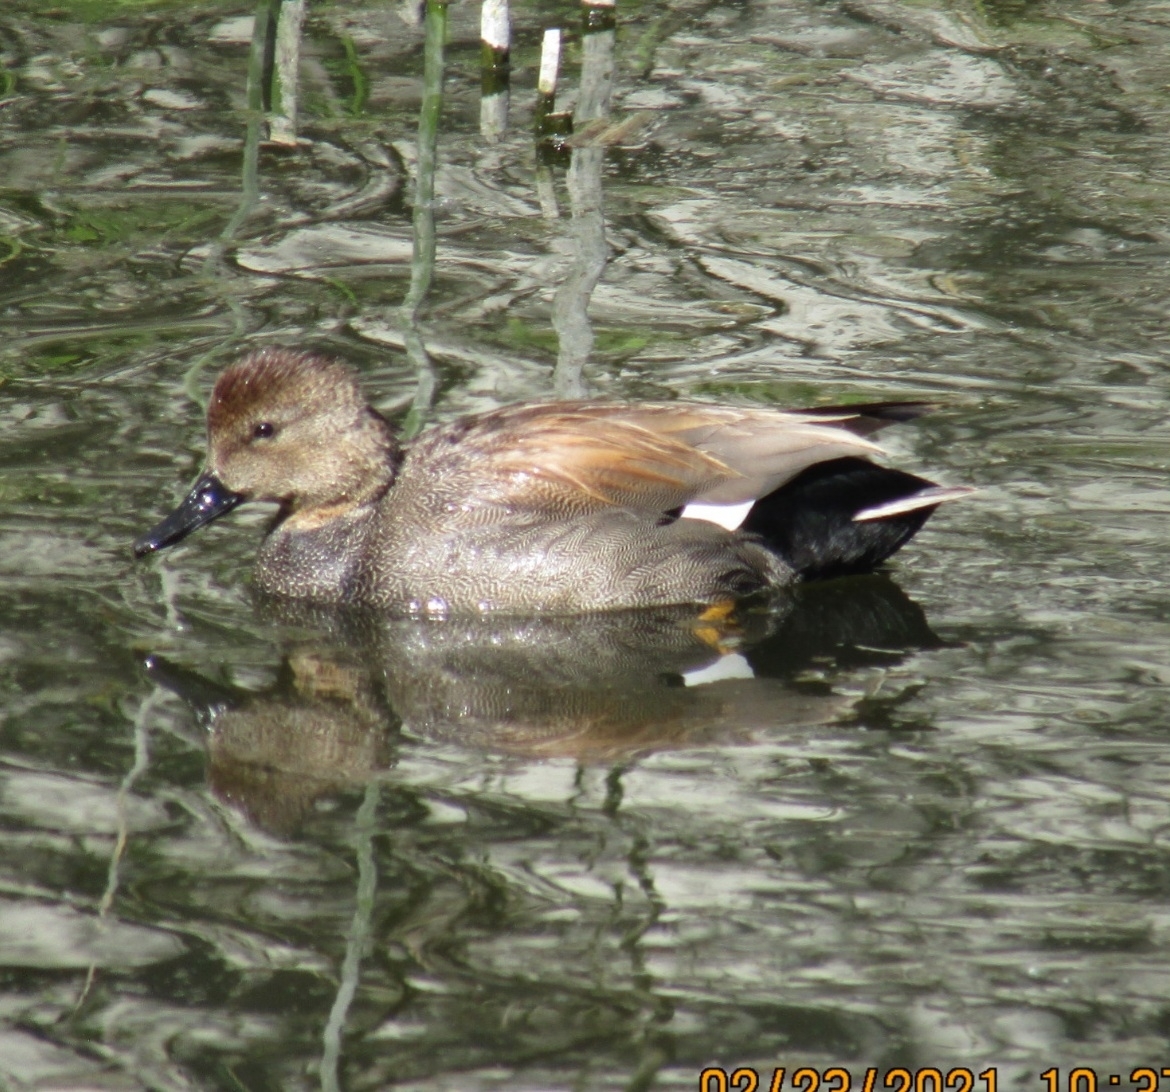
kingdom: Animalia
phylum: Chordata
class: Aves
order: Anseriformes
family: Anatidae
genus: Mareca
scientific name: Mareca strepera
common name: Gadwall
